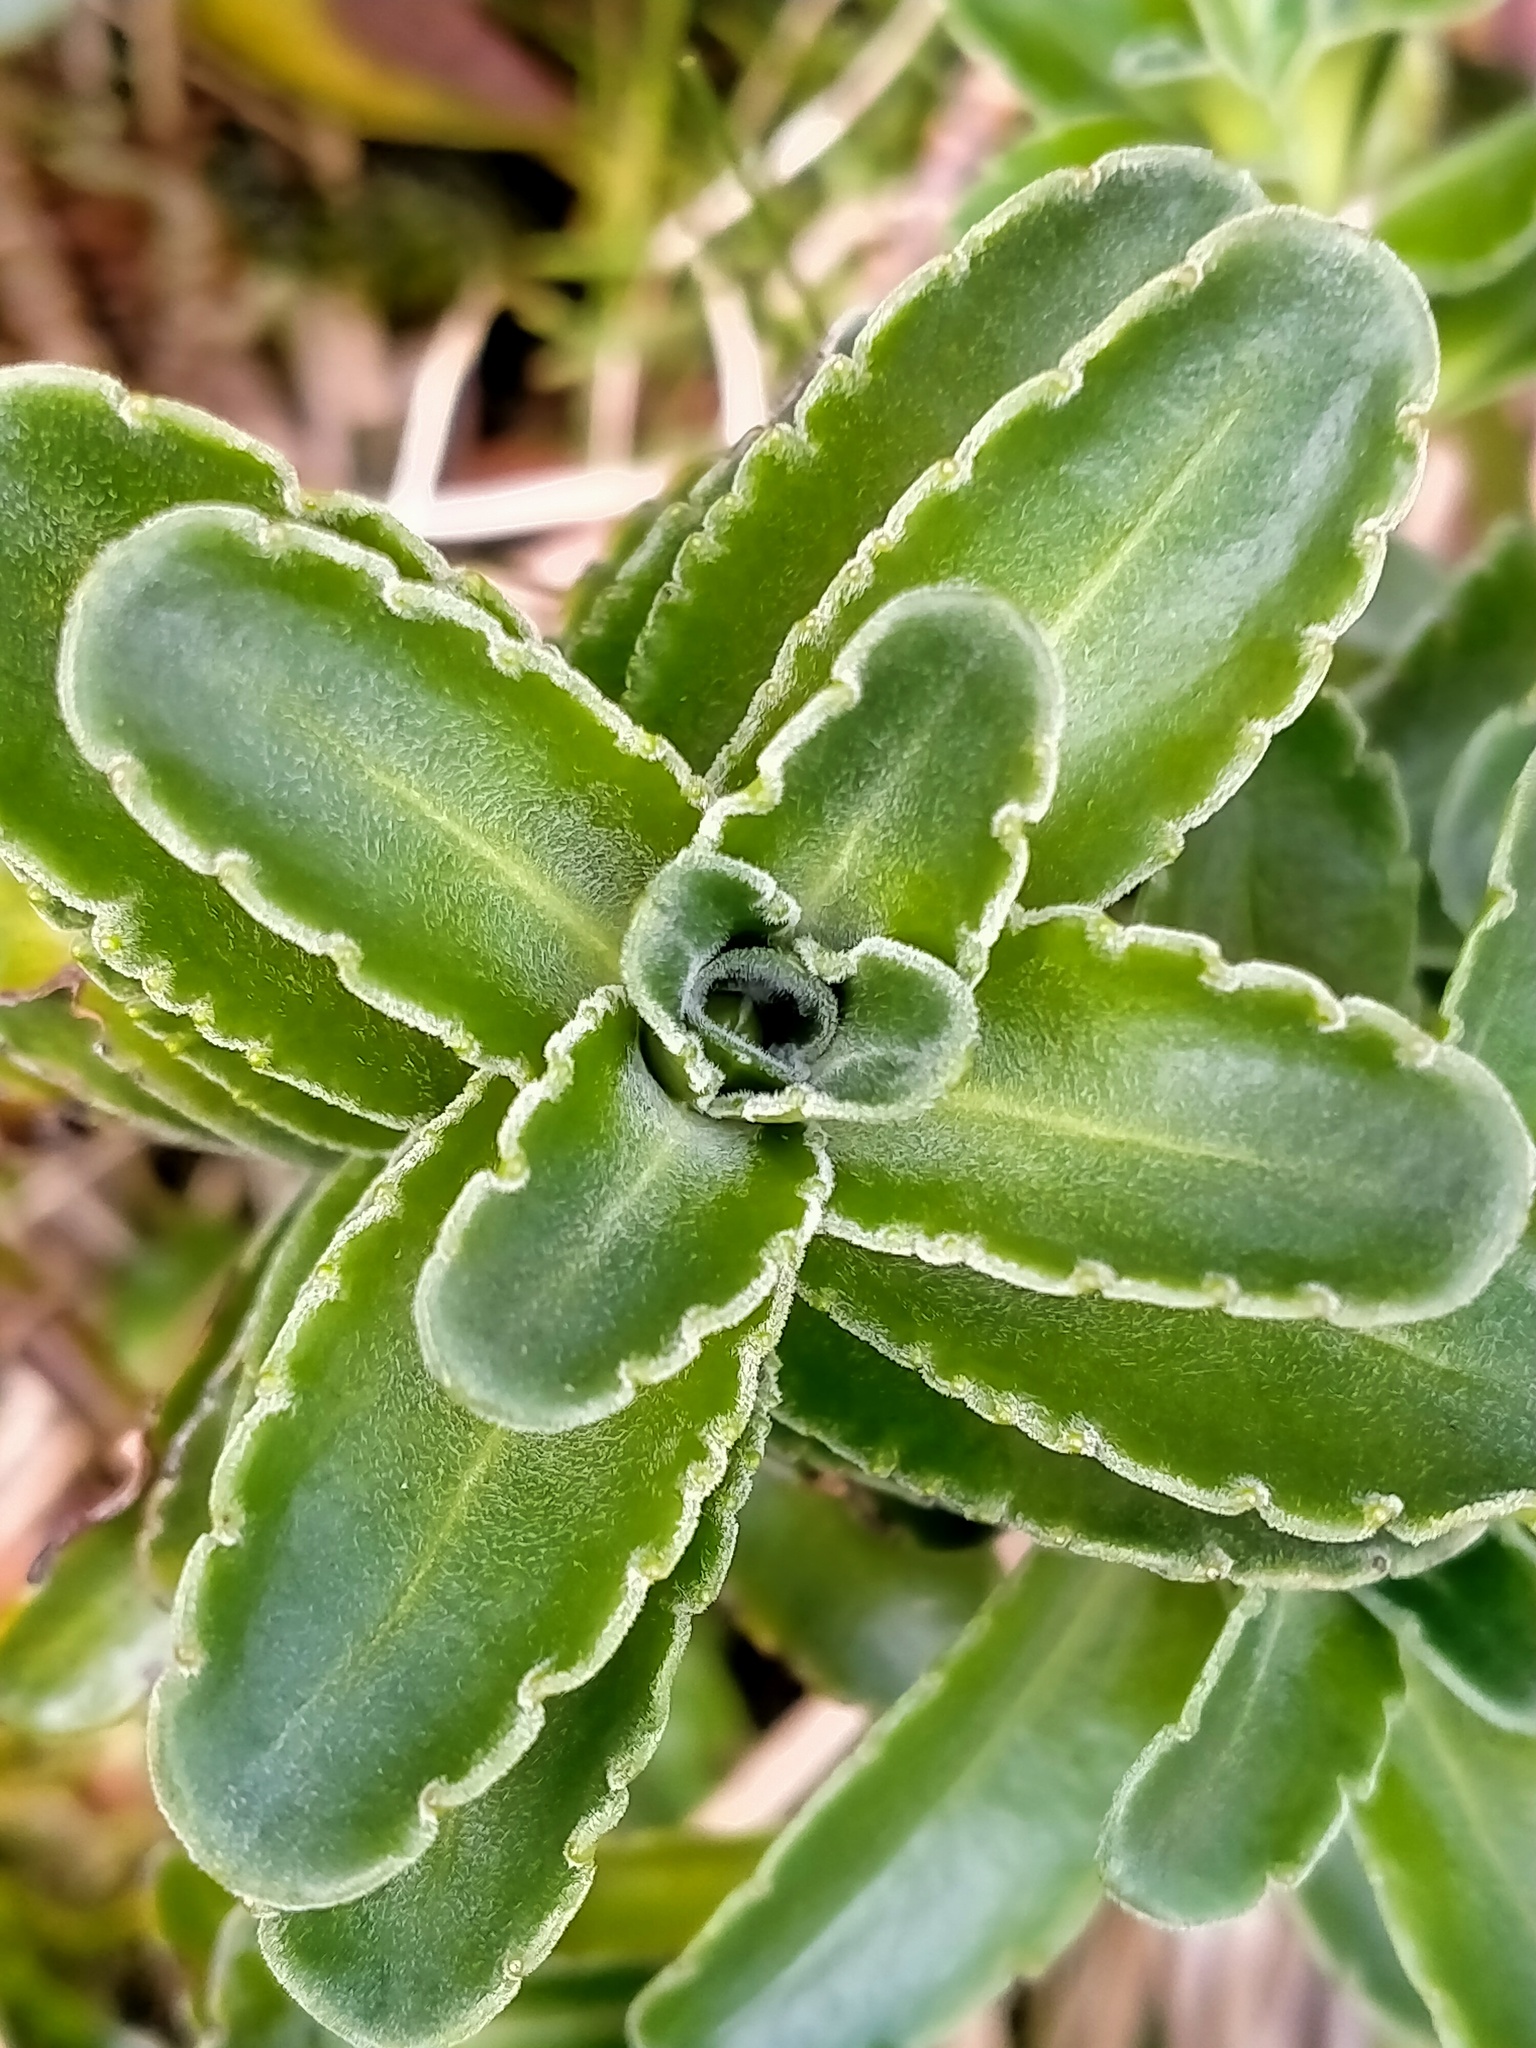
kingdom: Plantae
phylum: Tracheophyta
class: Magnoliopsida
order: Lamiales
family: Plantaginaceae
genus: Veronica
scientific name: Veronica benthamii
